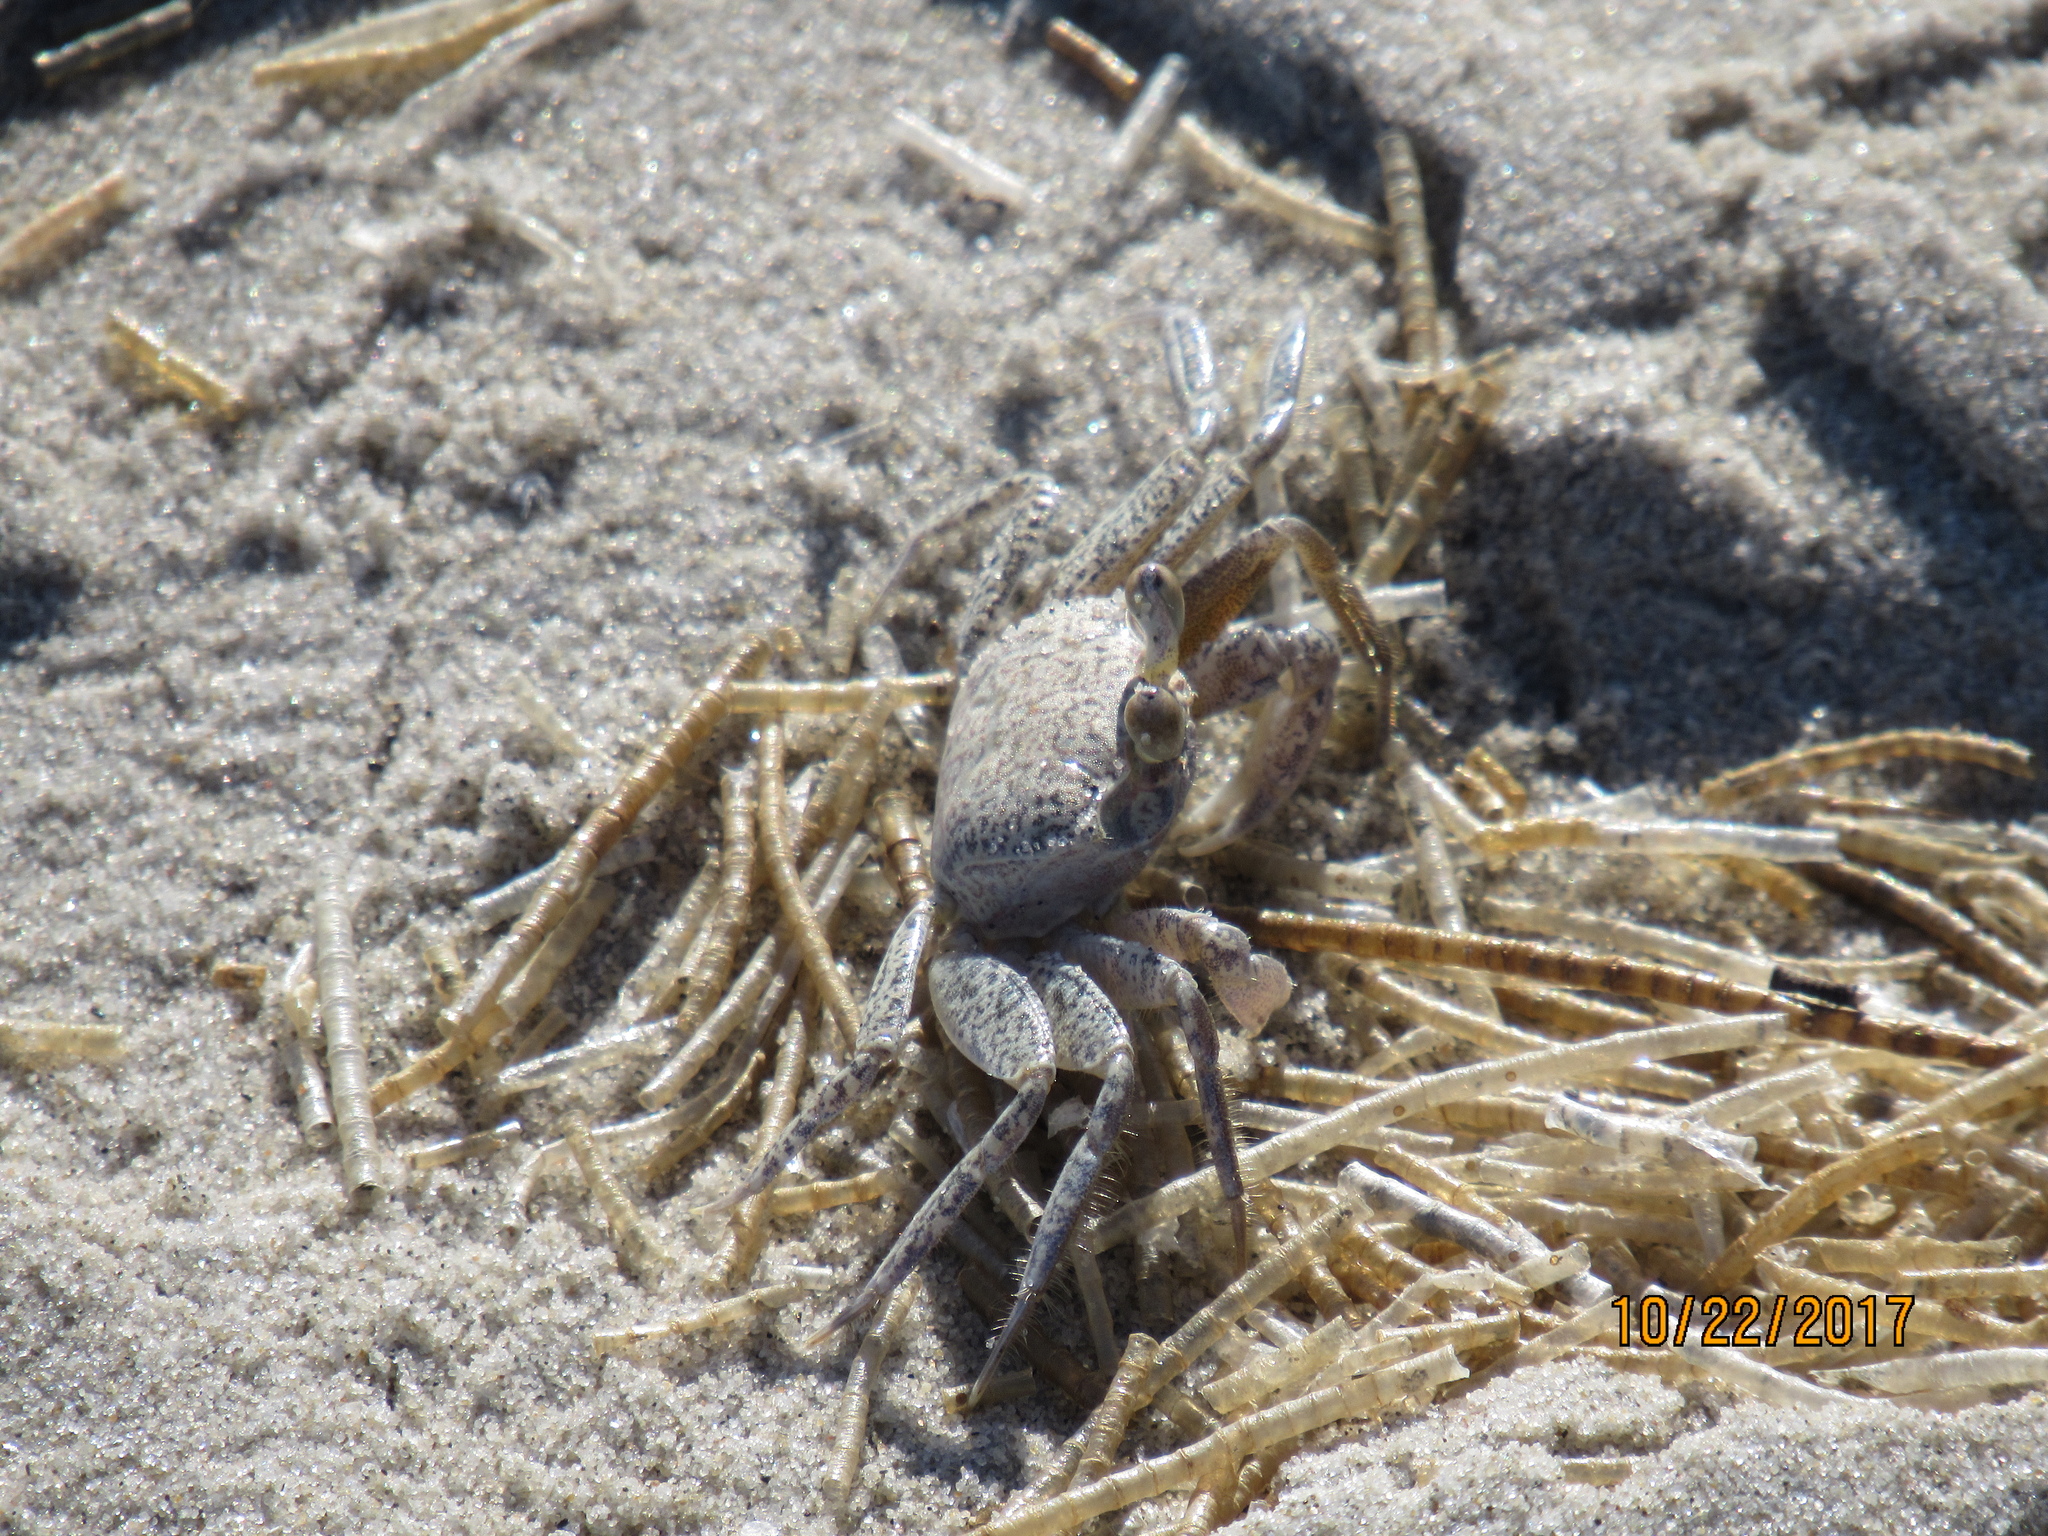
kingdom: Animalia
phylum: Arthropoda
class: Malacostraca
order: Decapoda
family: Ocypodidae
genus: Ocypode
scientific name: Ocypode quadrata
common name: Ghost crab
